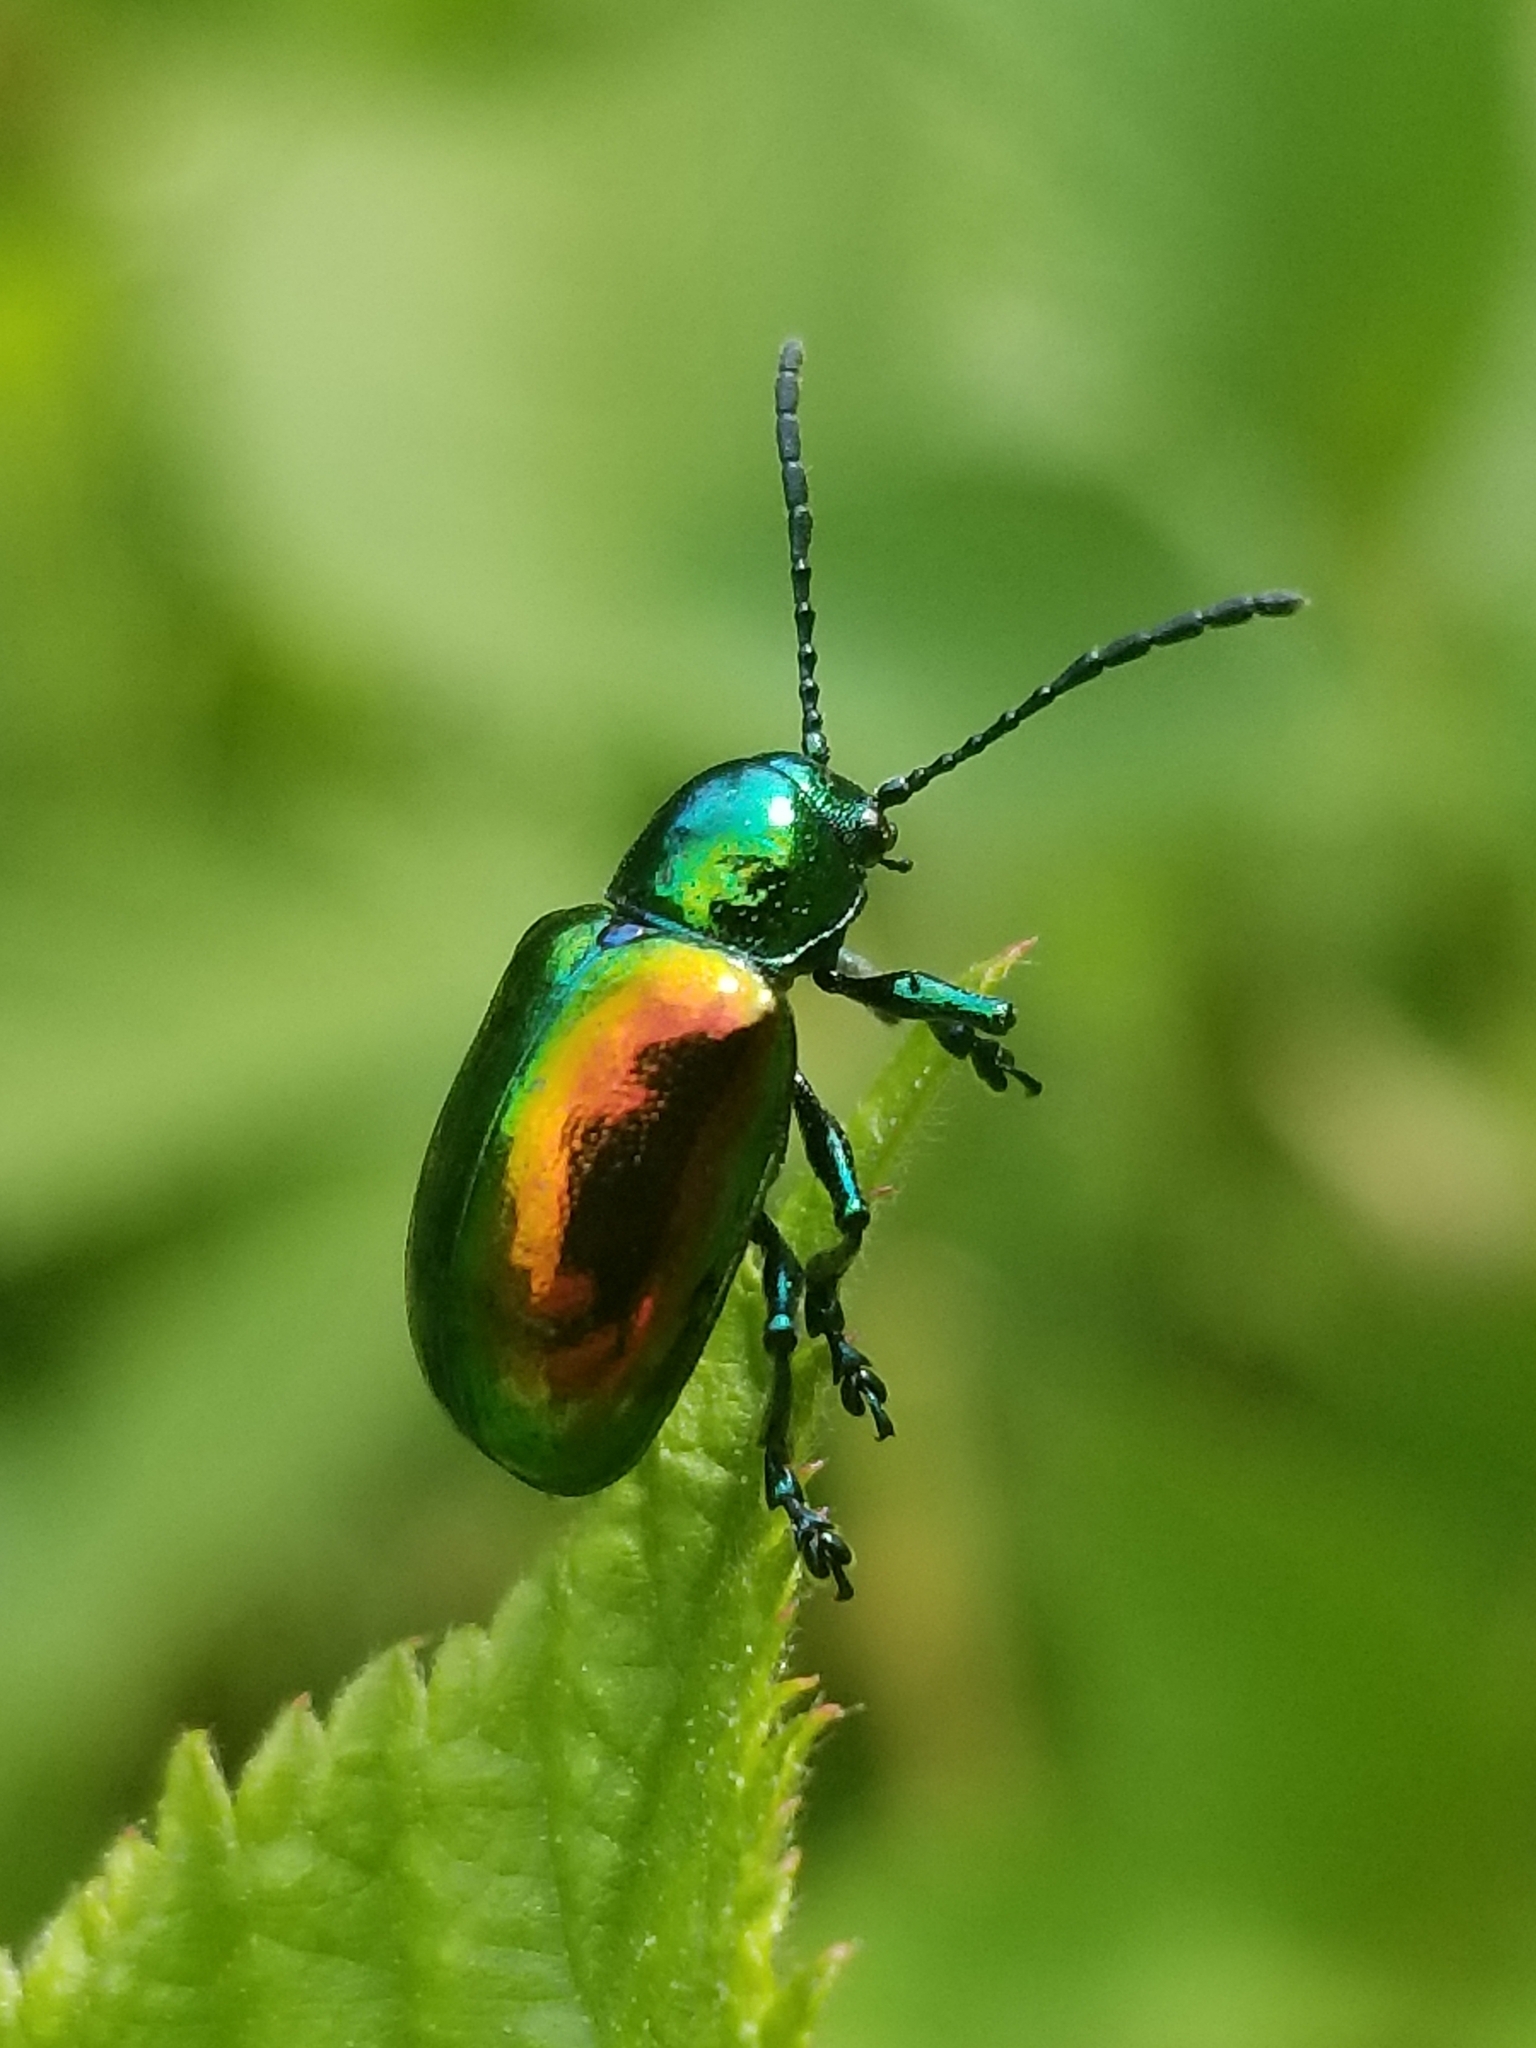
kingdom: Animalia
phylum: Arthropoda
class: Insecta
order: Coleoptera
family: Chrysomelidae
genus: Chrysochus
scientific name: Chrysochus auratus
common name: Dogbane leaf beetle
